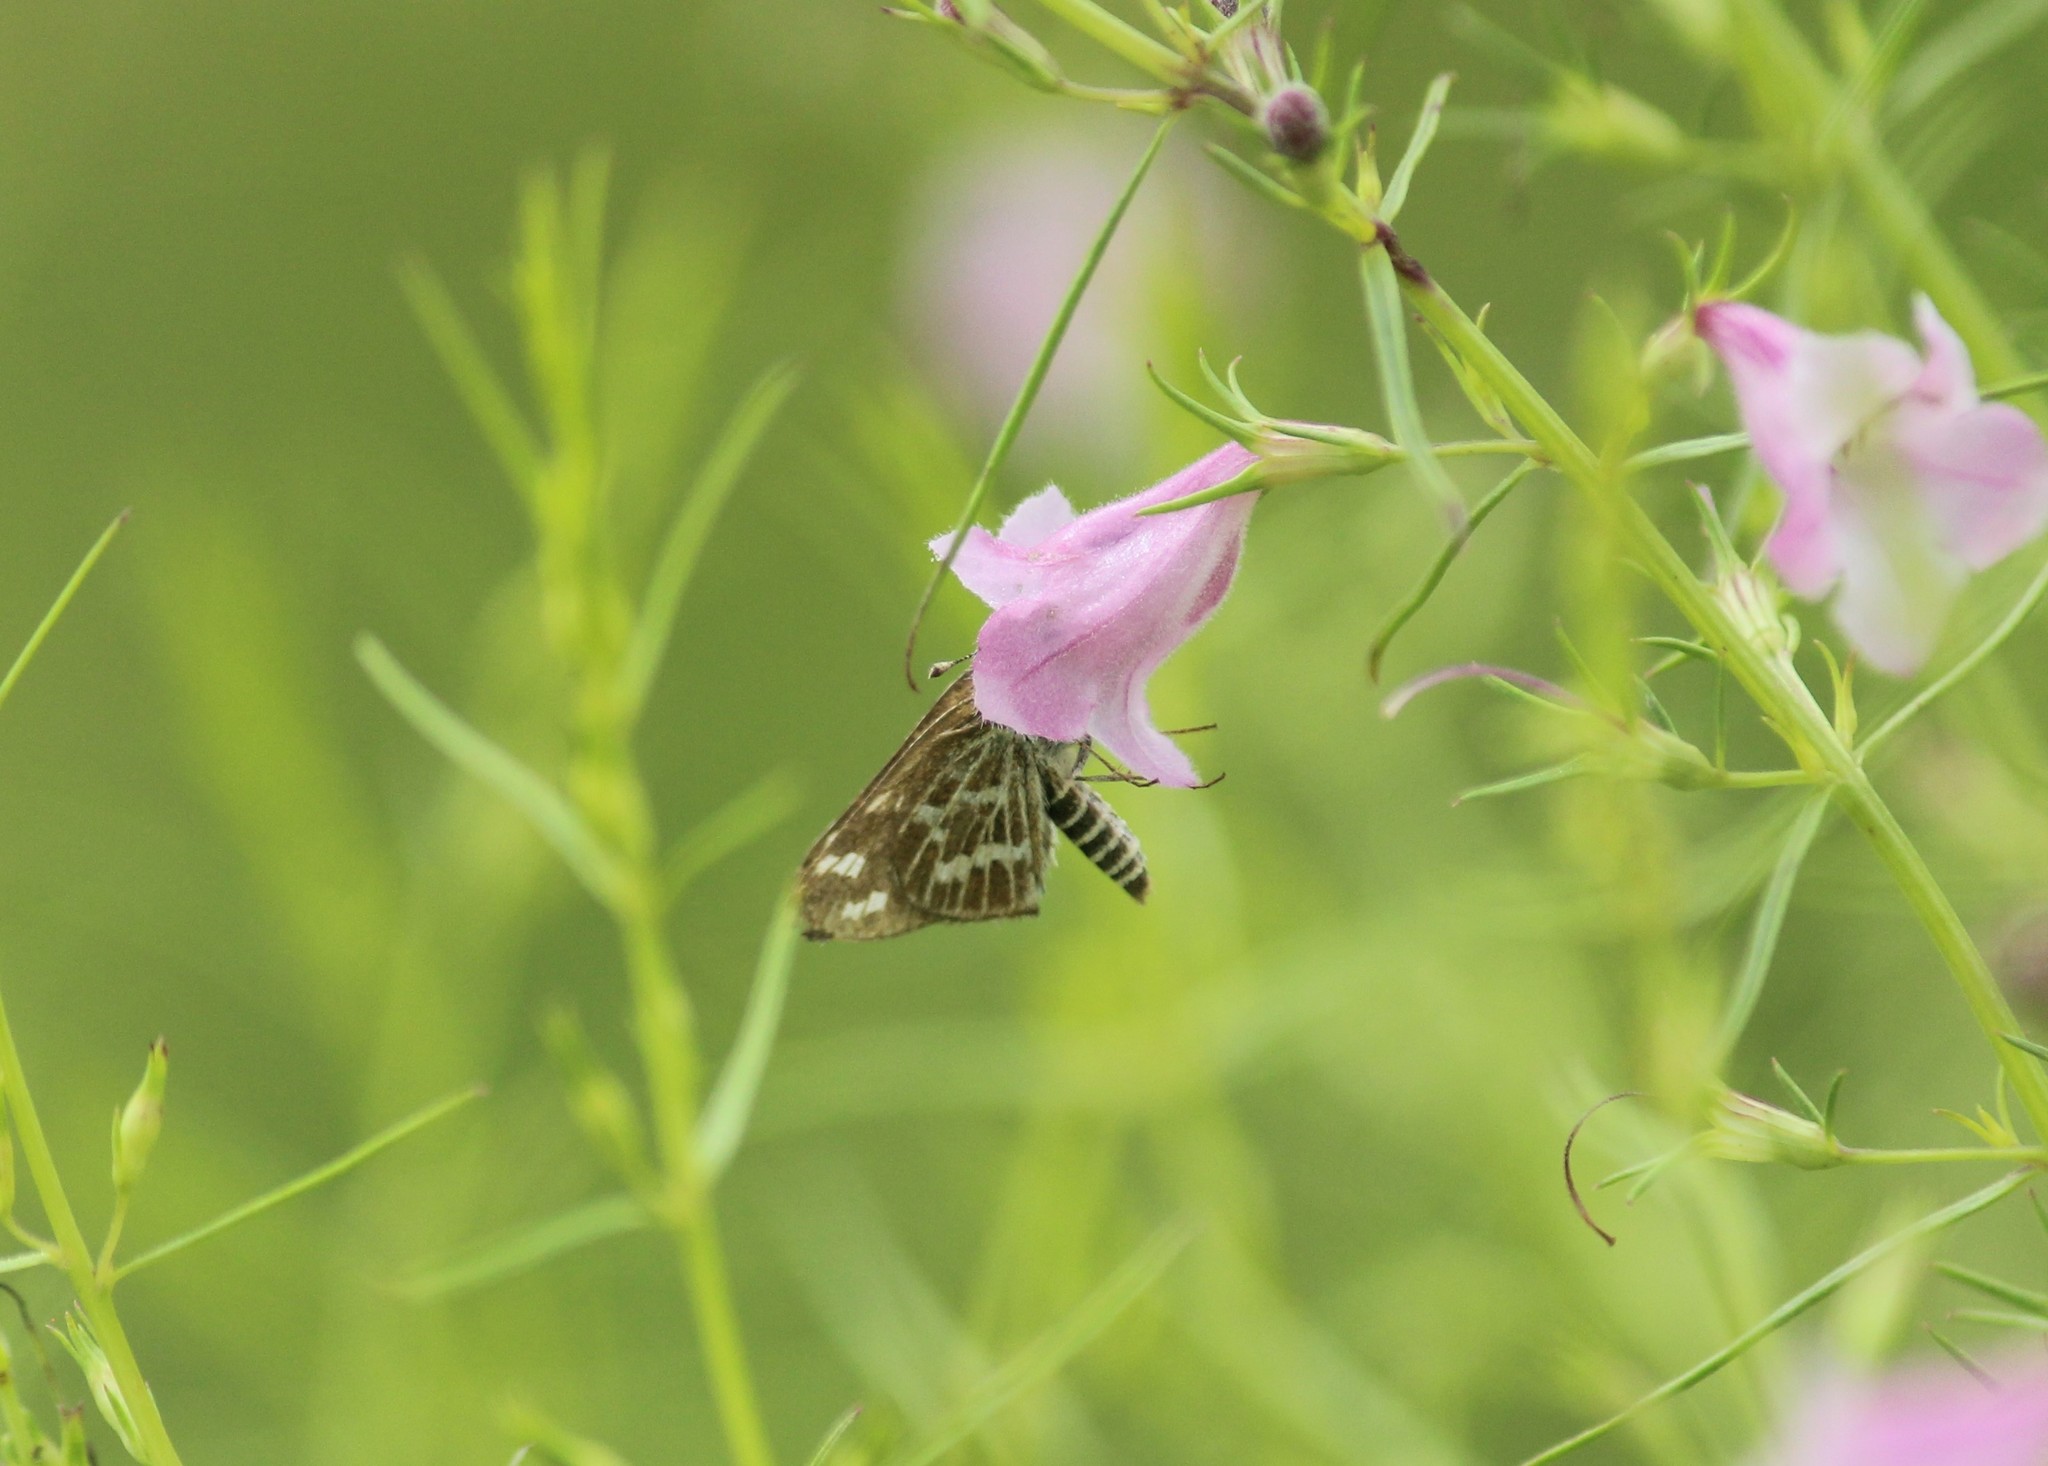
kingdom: Animalia
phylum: Arthropoda
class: Insecta
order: Lepidoptera
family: Hesperiidae
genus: Taractrocera
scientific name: Taractrocera maevius
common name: Common grass-dart
